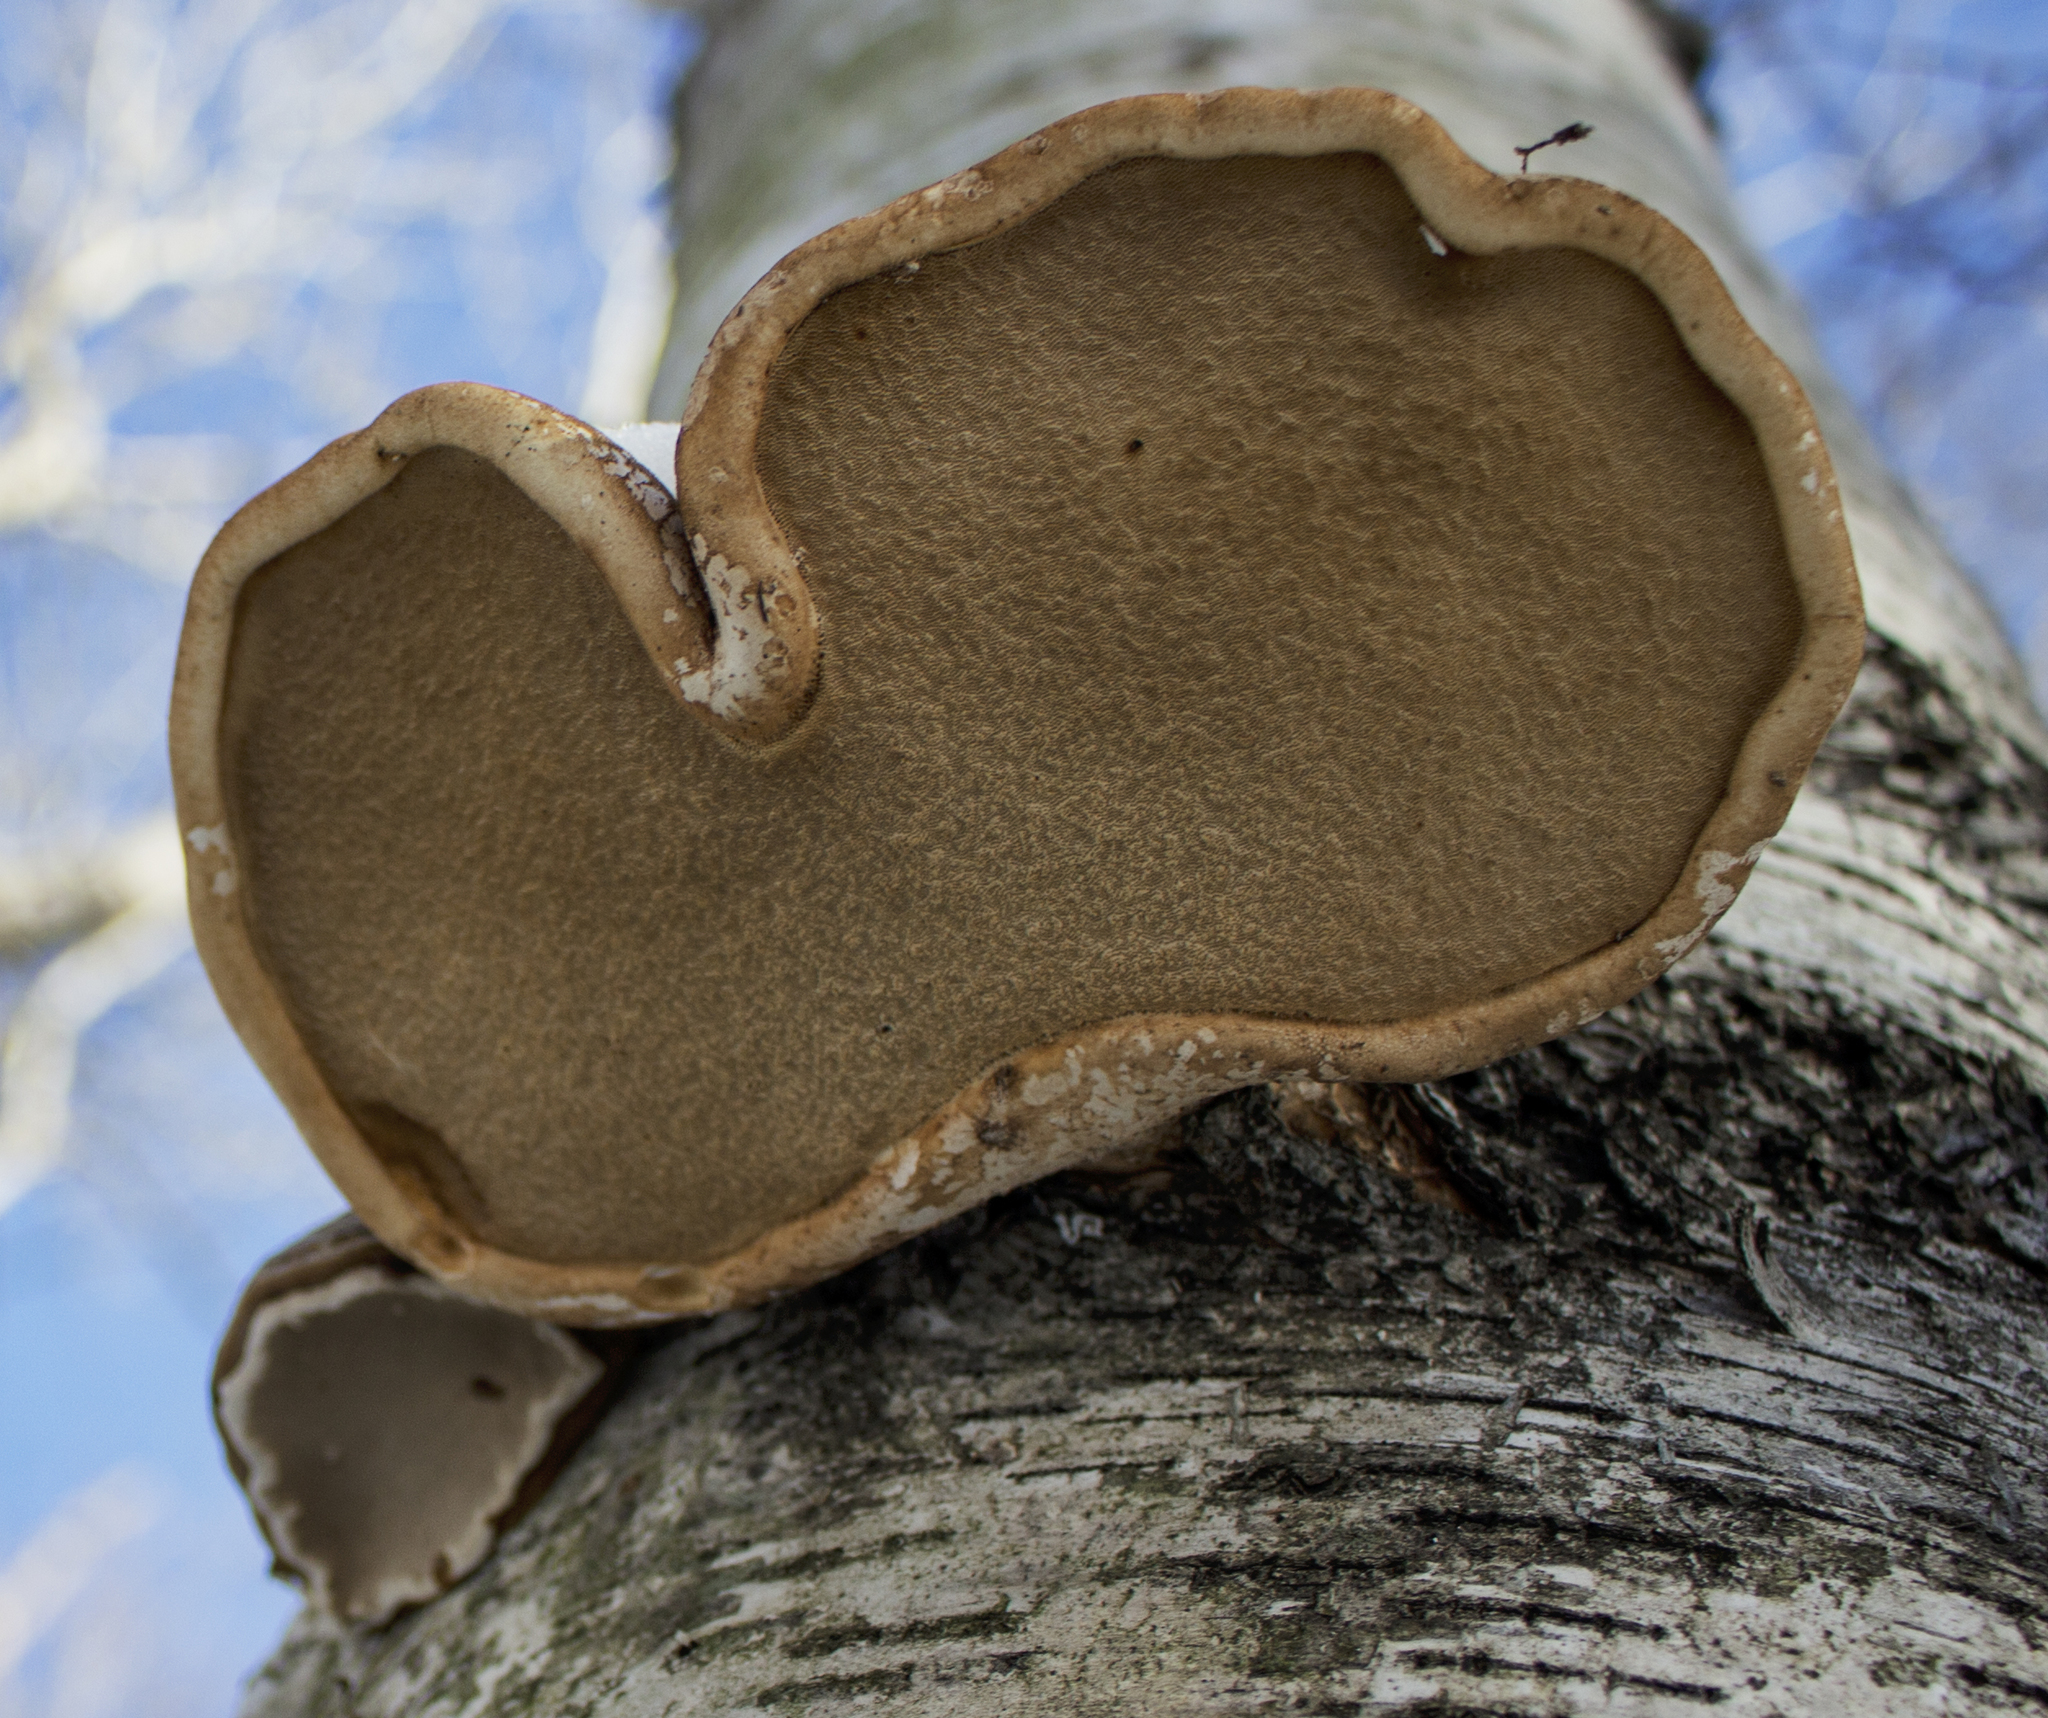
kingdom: Fungi
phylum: Basidiomycota
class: Agaricomycetes
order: Polyporales
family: Fomitopsidaceae
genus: Fomitopsis
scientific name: Fomitopsis betulina
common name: Birch polypore
